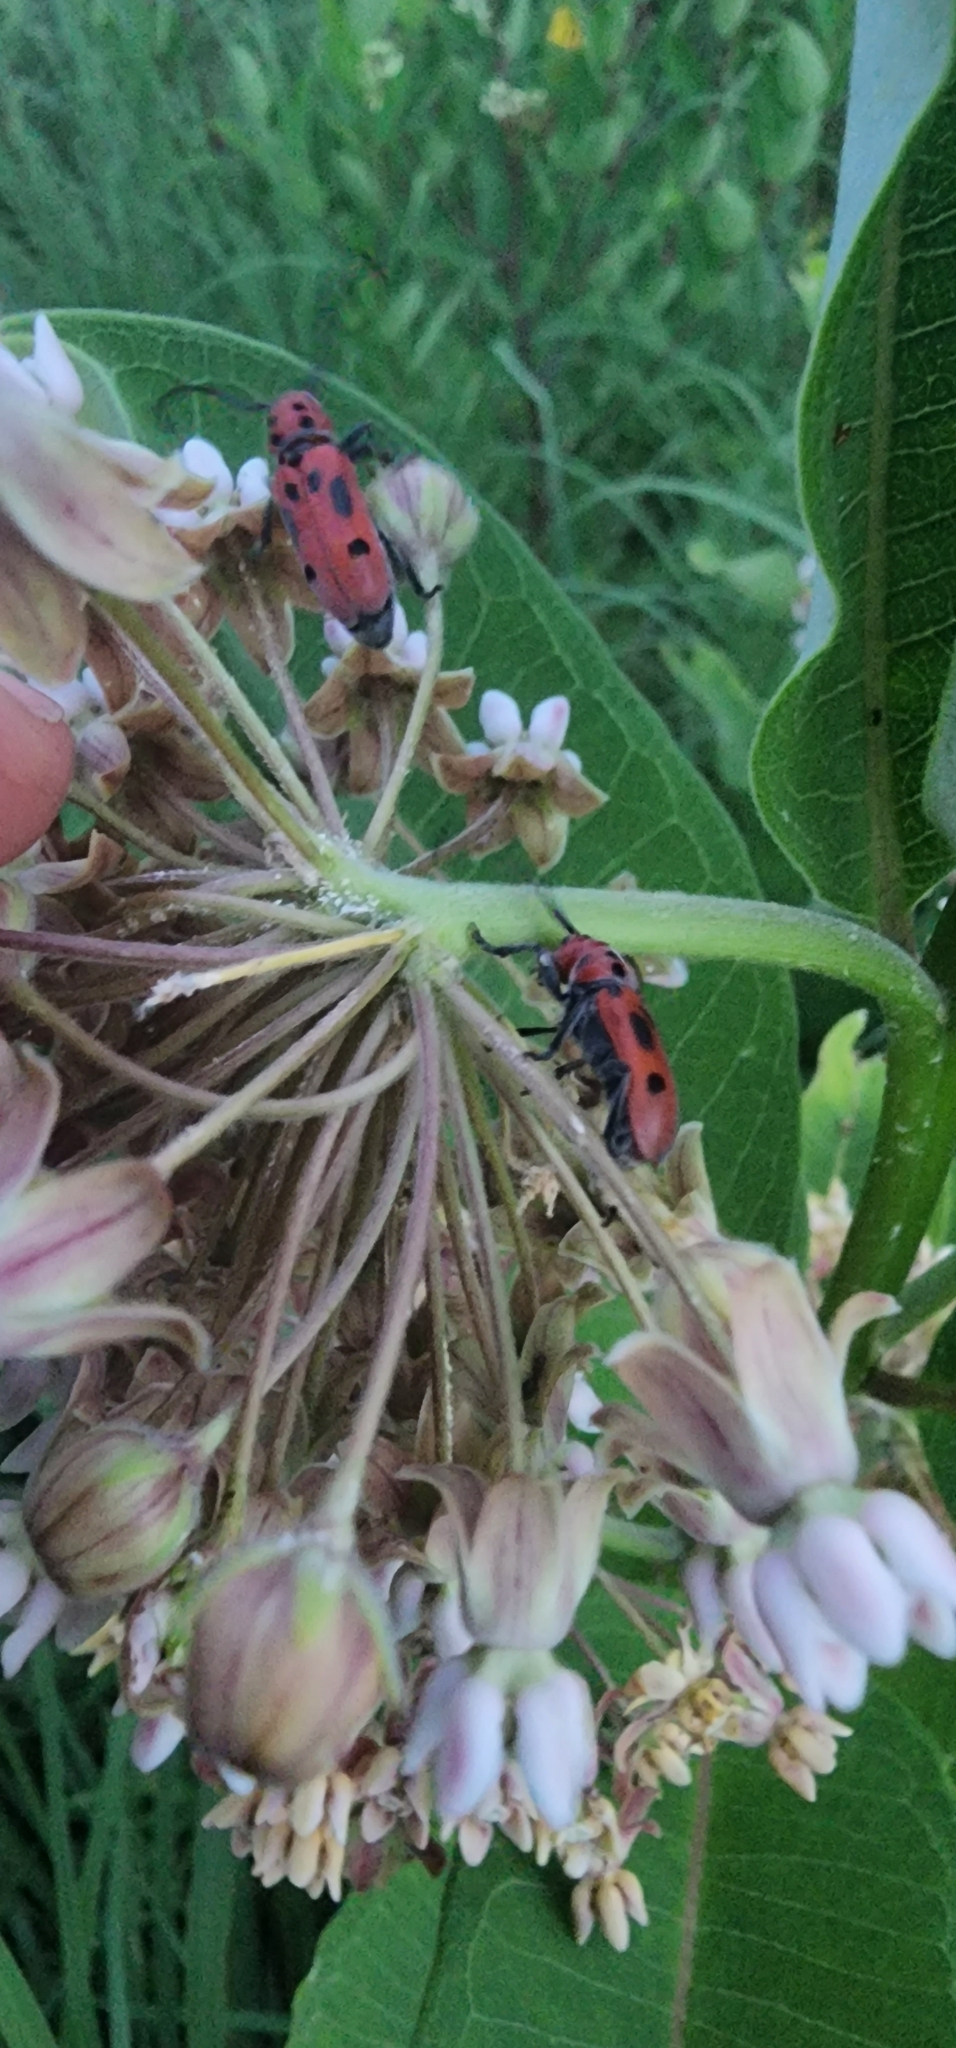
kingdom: Animalia
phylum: Arthropoda
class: Insecta
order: Coleoptera
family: Cerambycidae
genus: Tetraopes
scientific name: Tetraopes tetrophthalmus
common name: Red milkweed beetle
